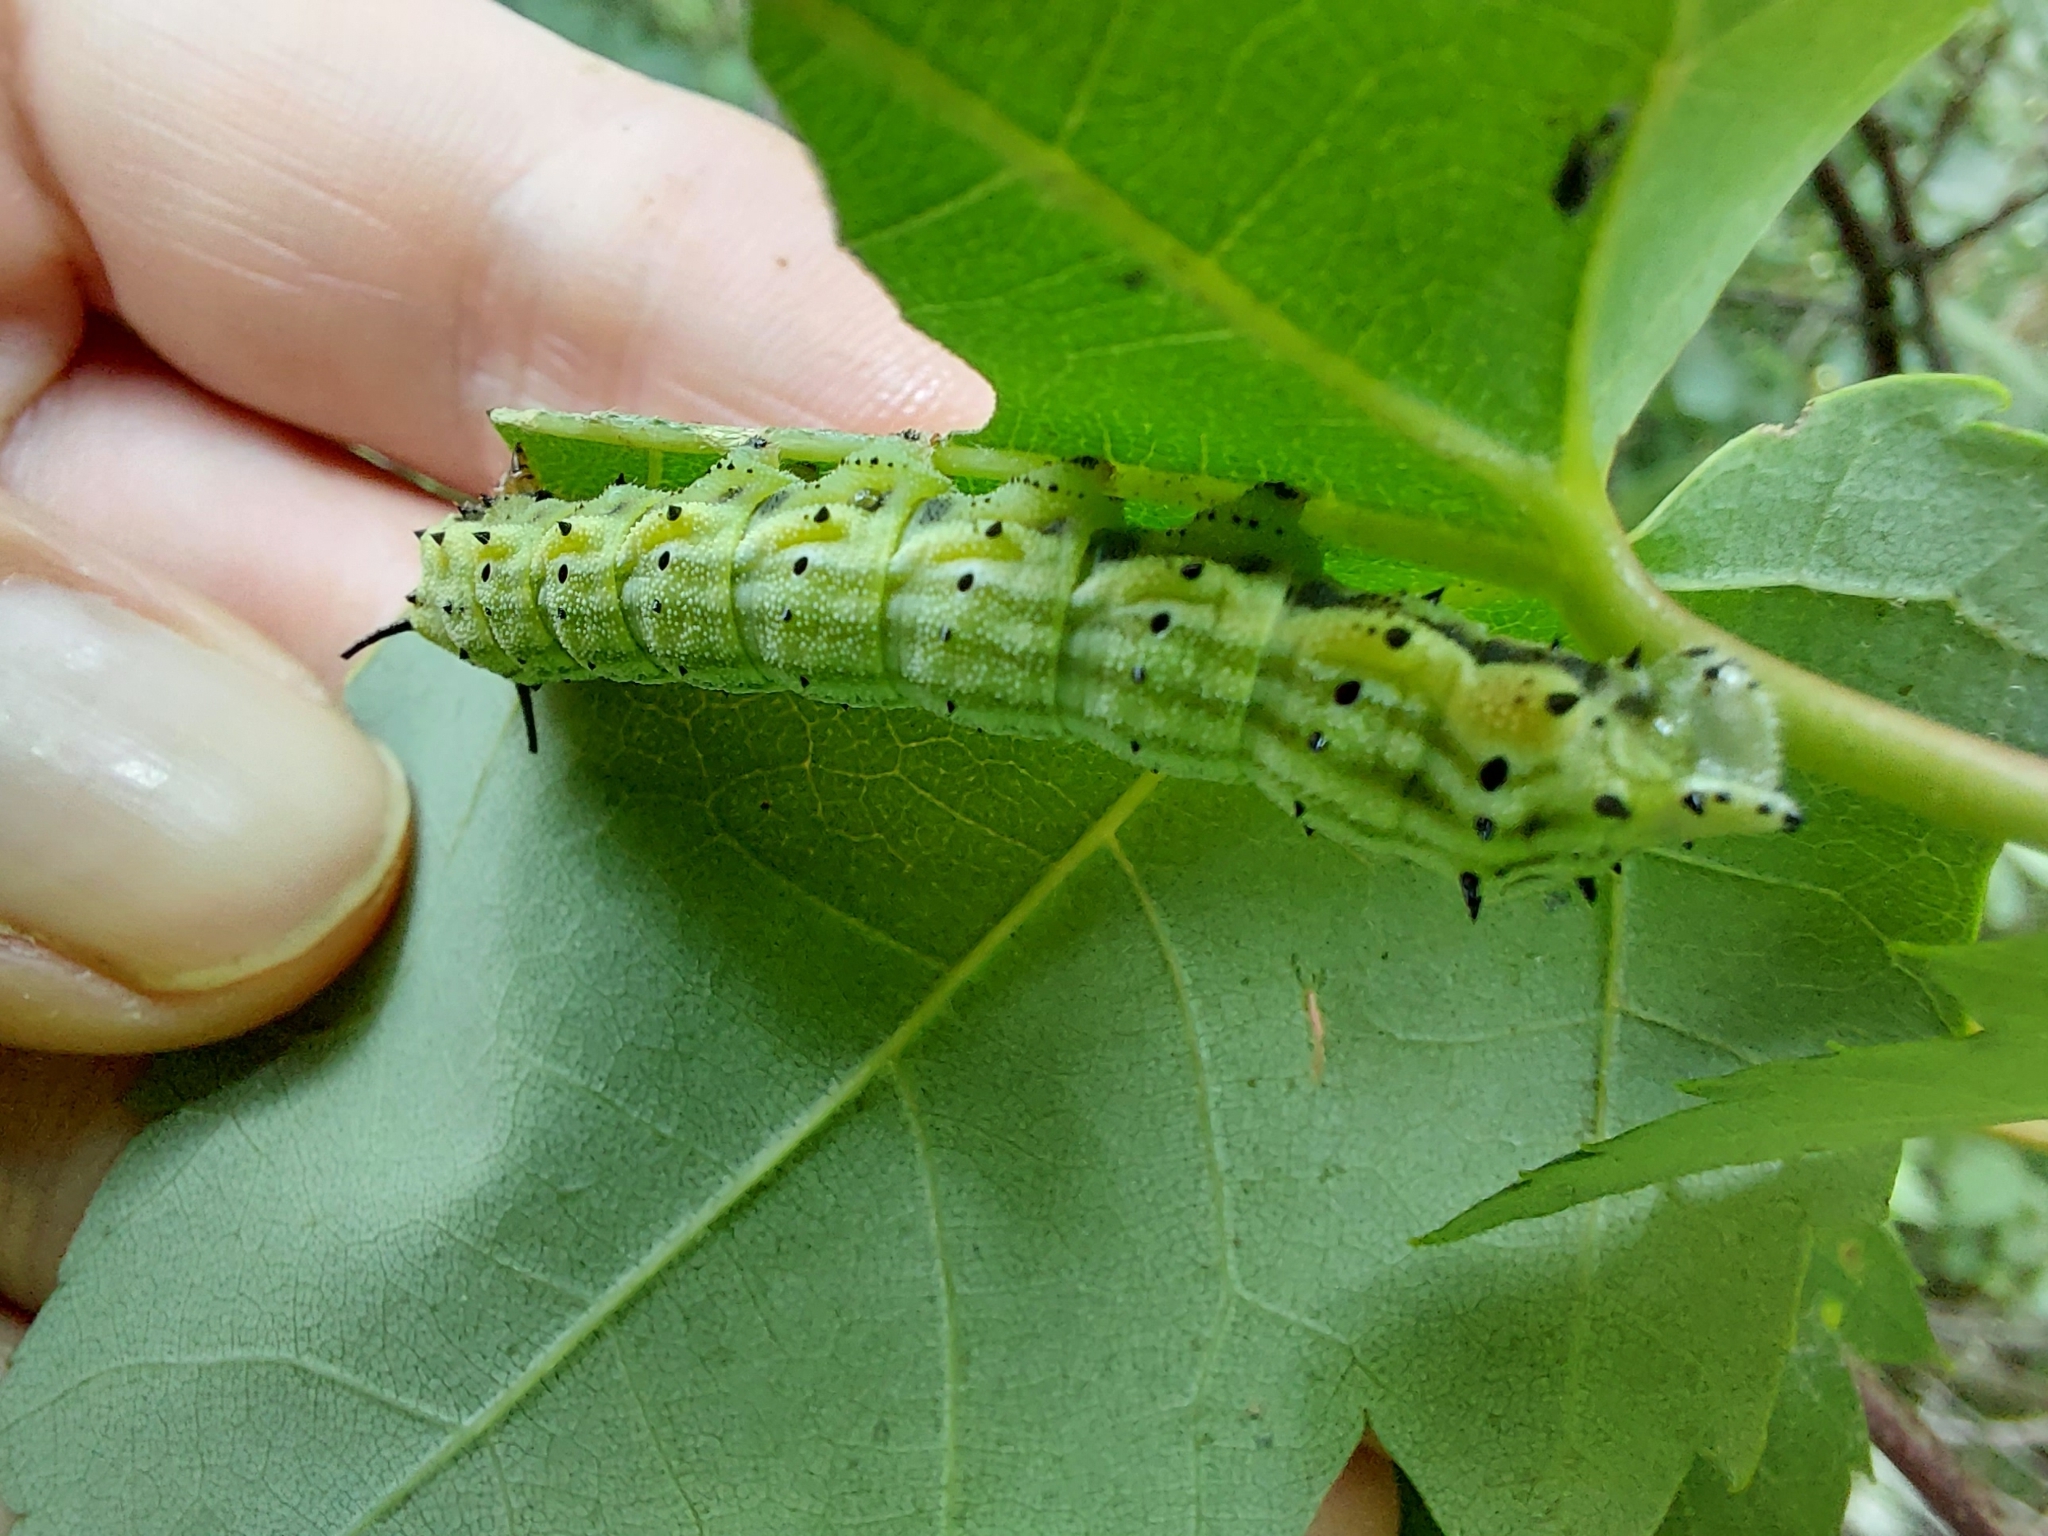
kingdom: Animalia
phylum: Arthropoda
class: Insecta
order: Lepidoptera
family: Saturniidae
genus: Dryocampa
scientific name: Dryocampa rubicunda
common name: Rosy maple moth
